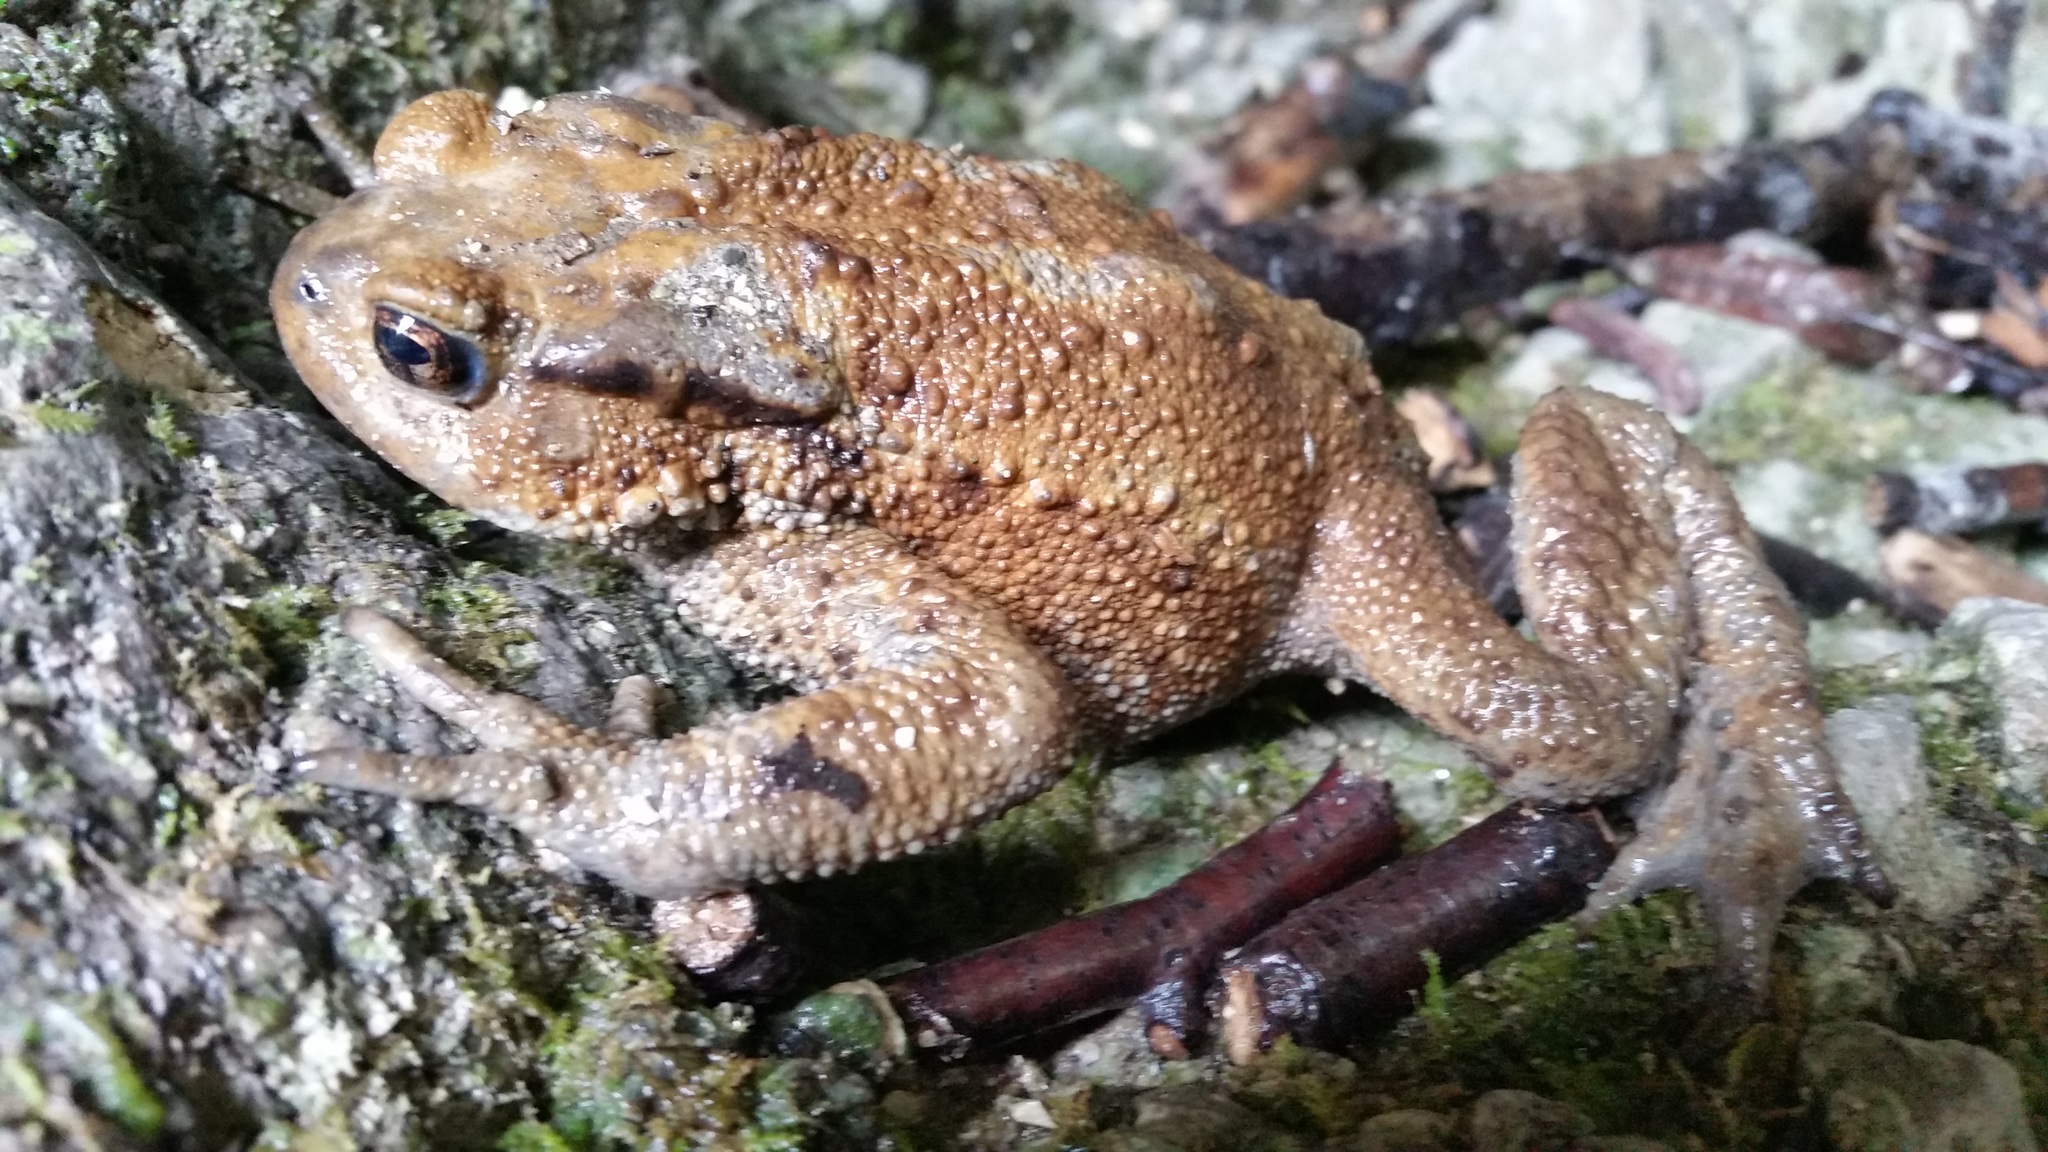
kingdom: Animalia
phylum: Chordata
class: Amphibia
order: Anura
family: Bufonidae
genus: Bufo
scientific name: Bufo verrucosissimus
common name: Caucasian toad
